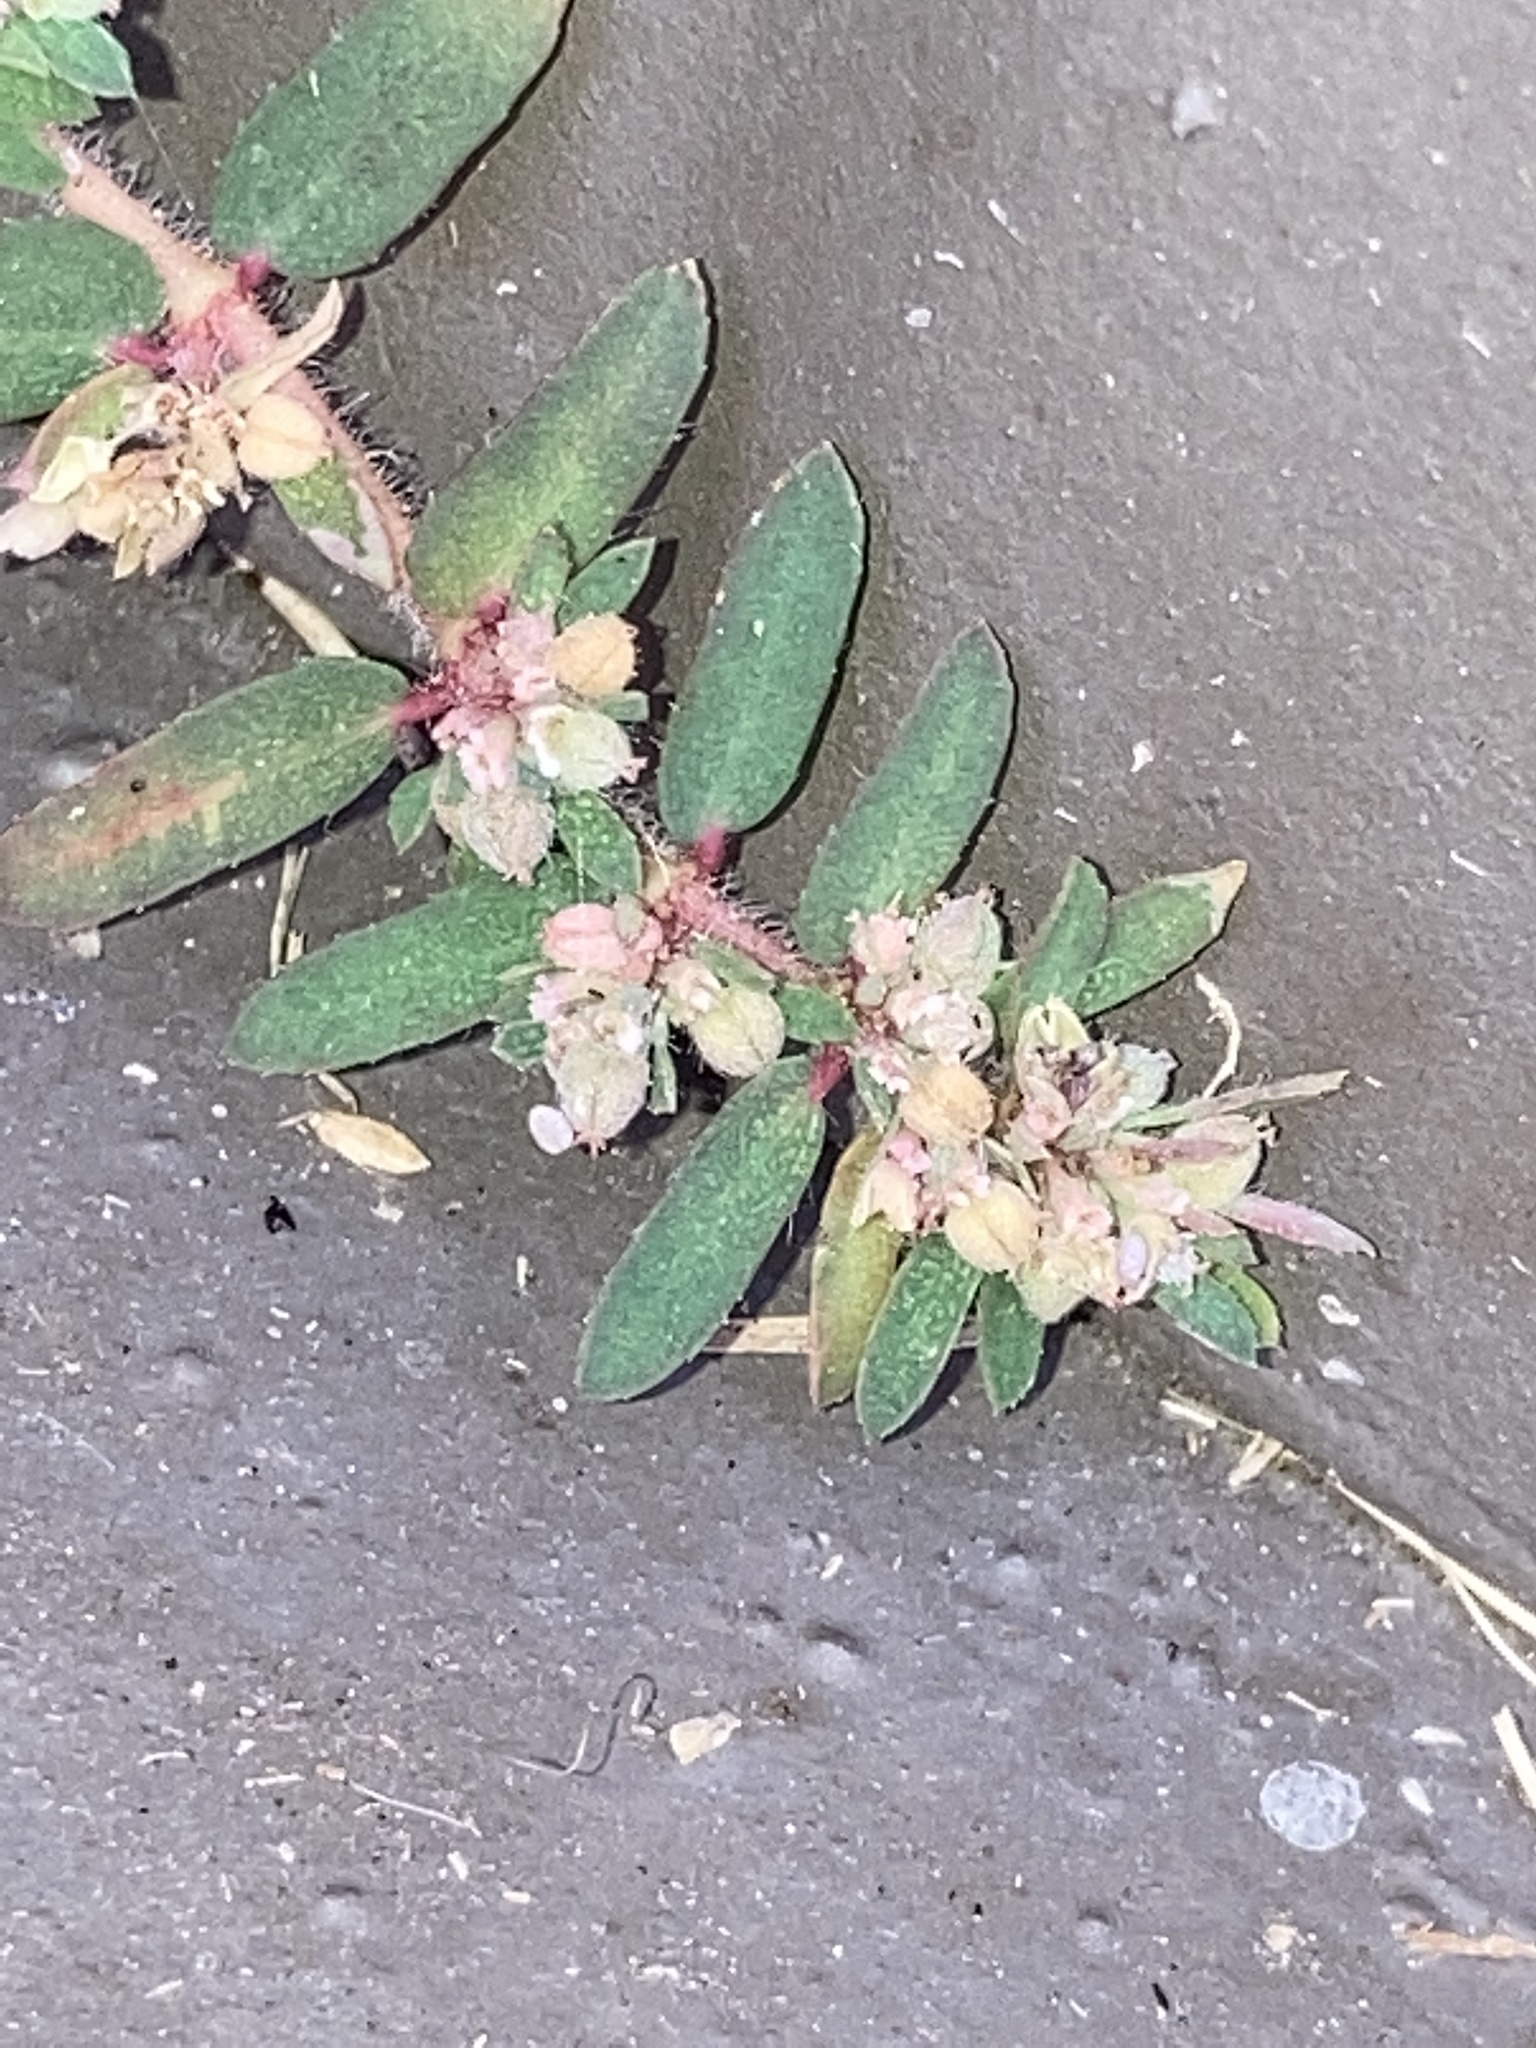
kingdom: Plantae
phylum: Tracheophyta
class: Magnoliopsida
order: Malpighiales
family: Euphorbiaceae
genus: Euphorbia
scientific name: Euphorbia maculata
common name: Spotted spurge
